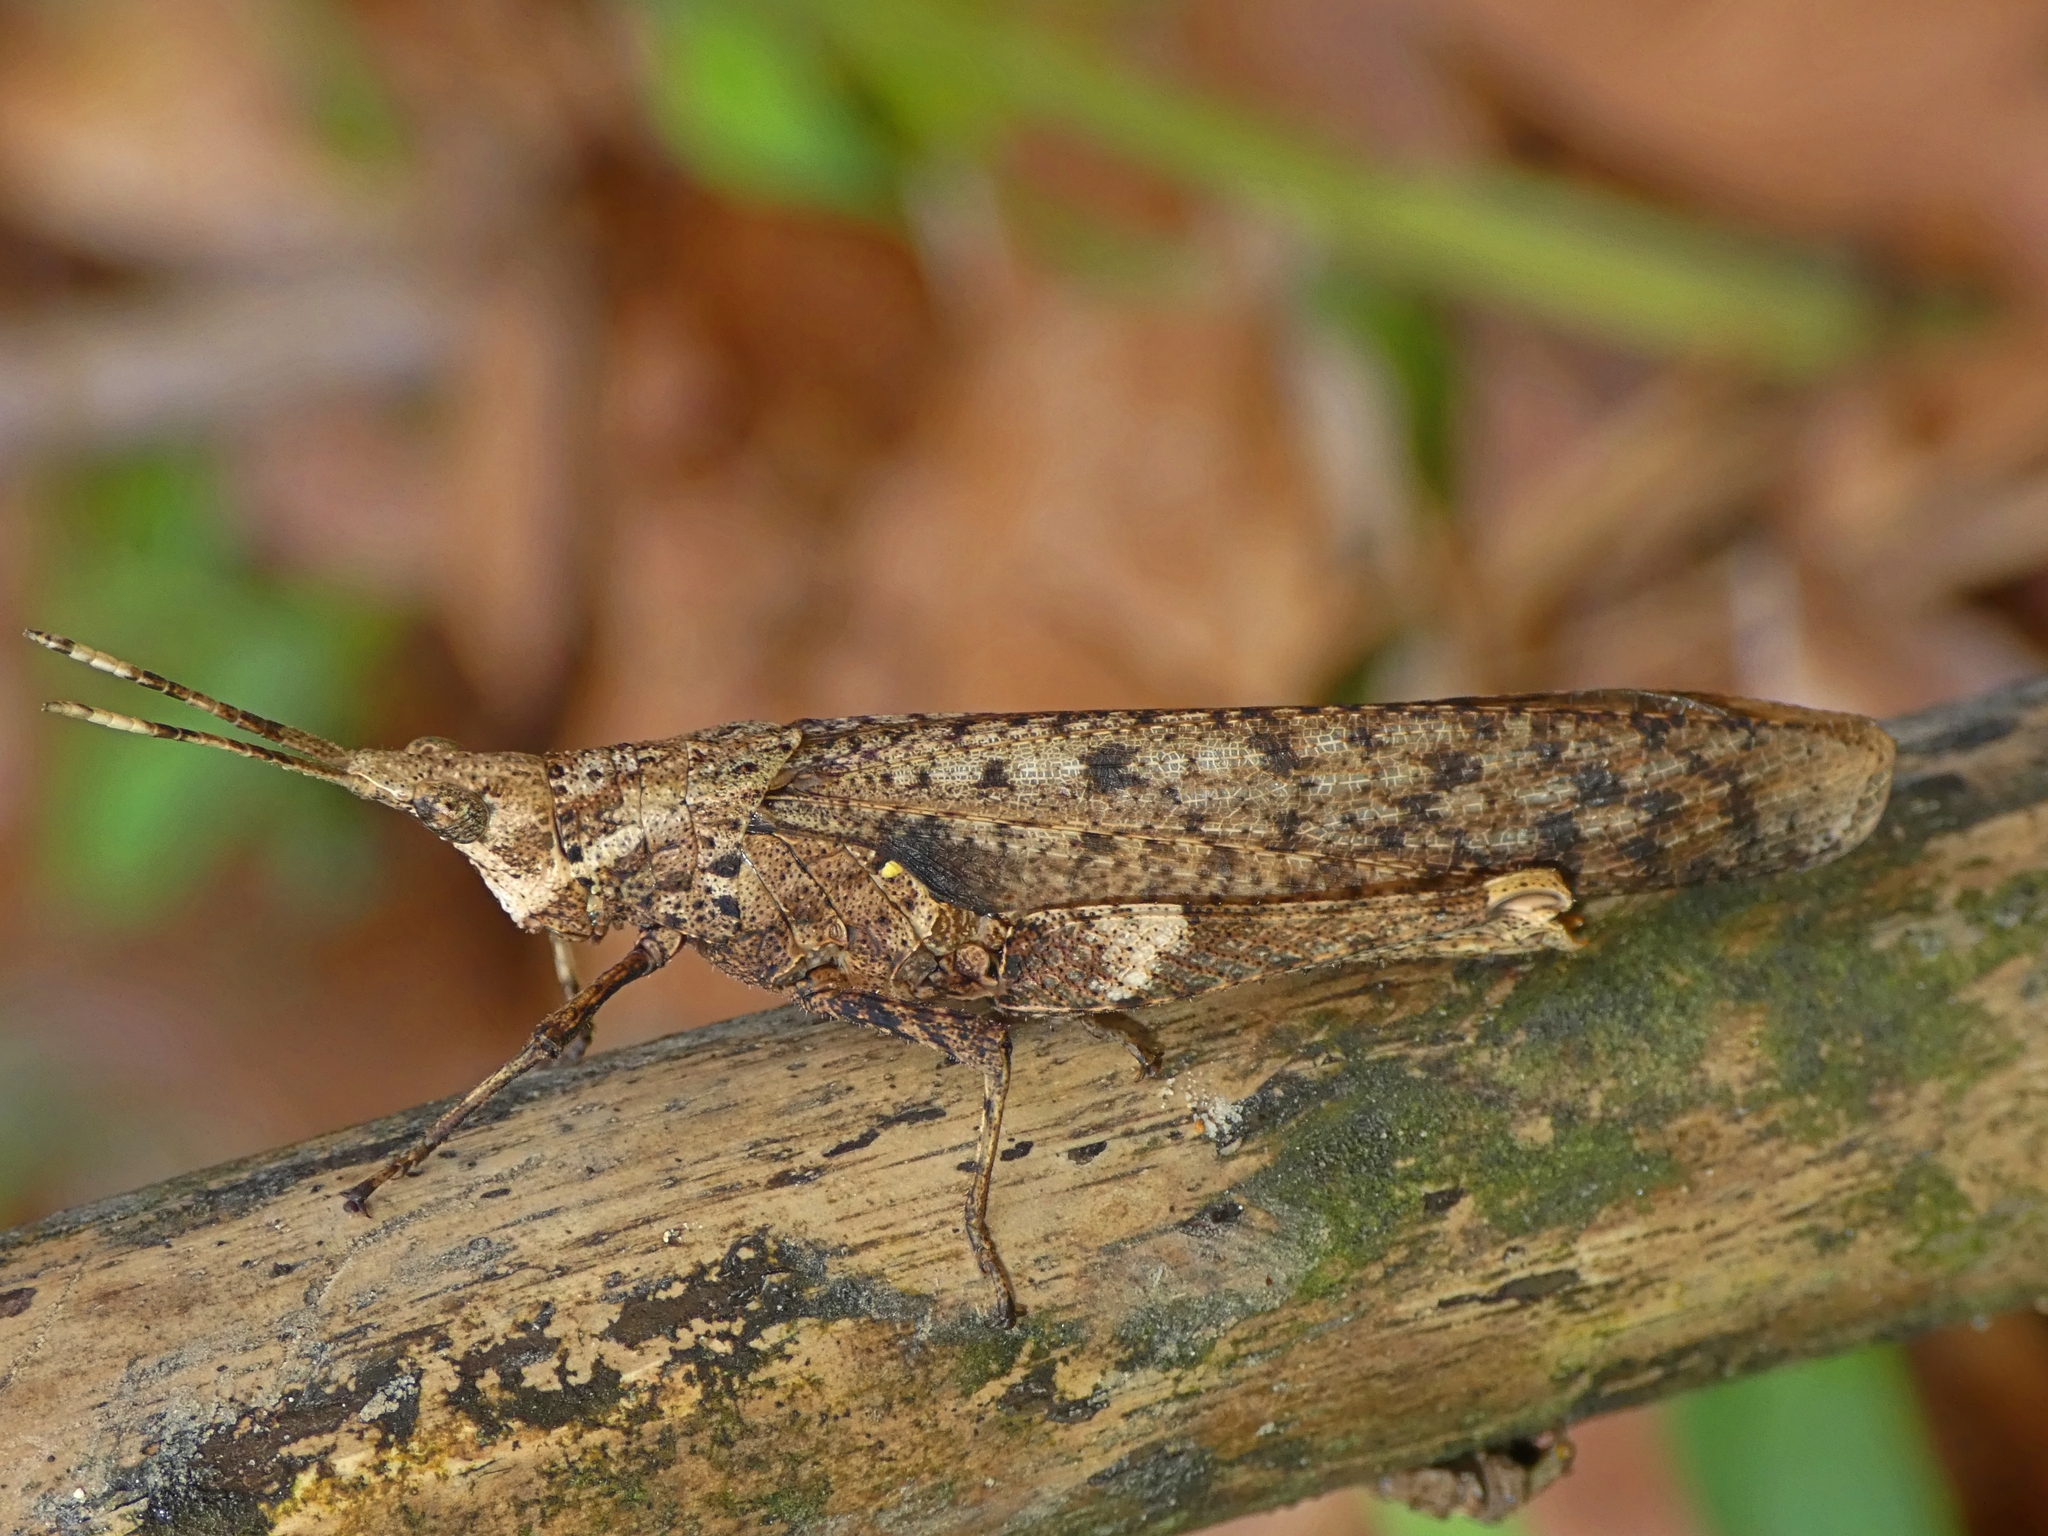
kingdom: Animalia
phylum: Arthropoda
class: Insecta
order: Orthoptera
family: Pyrgomorphidae
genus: Desmoptera
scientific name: Desmoptera truncatipennis
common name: Large forest pyrgomorph
